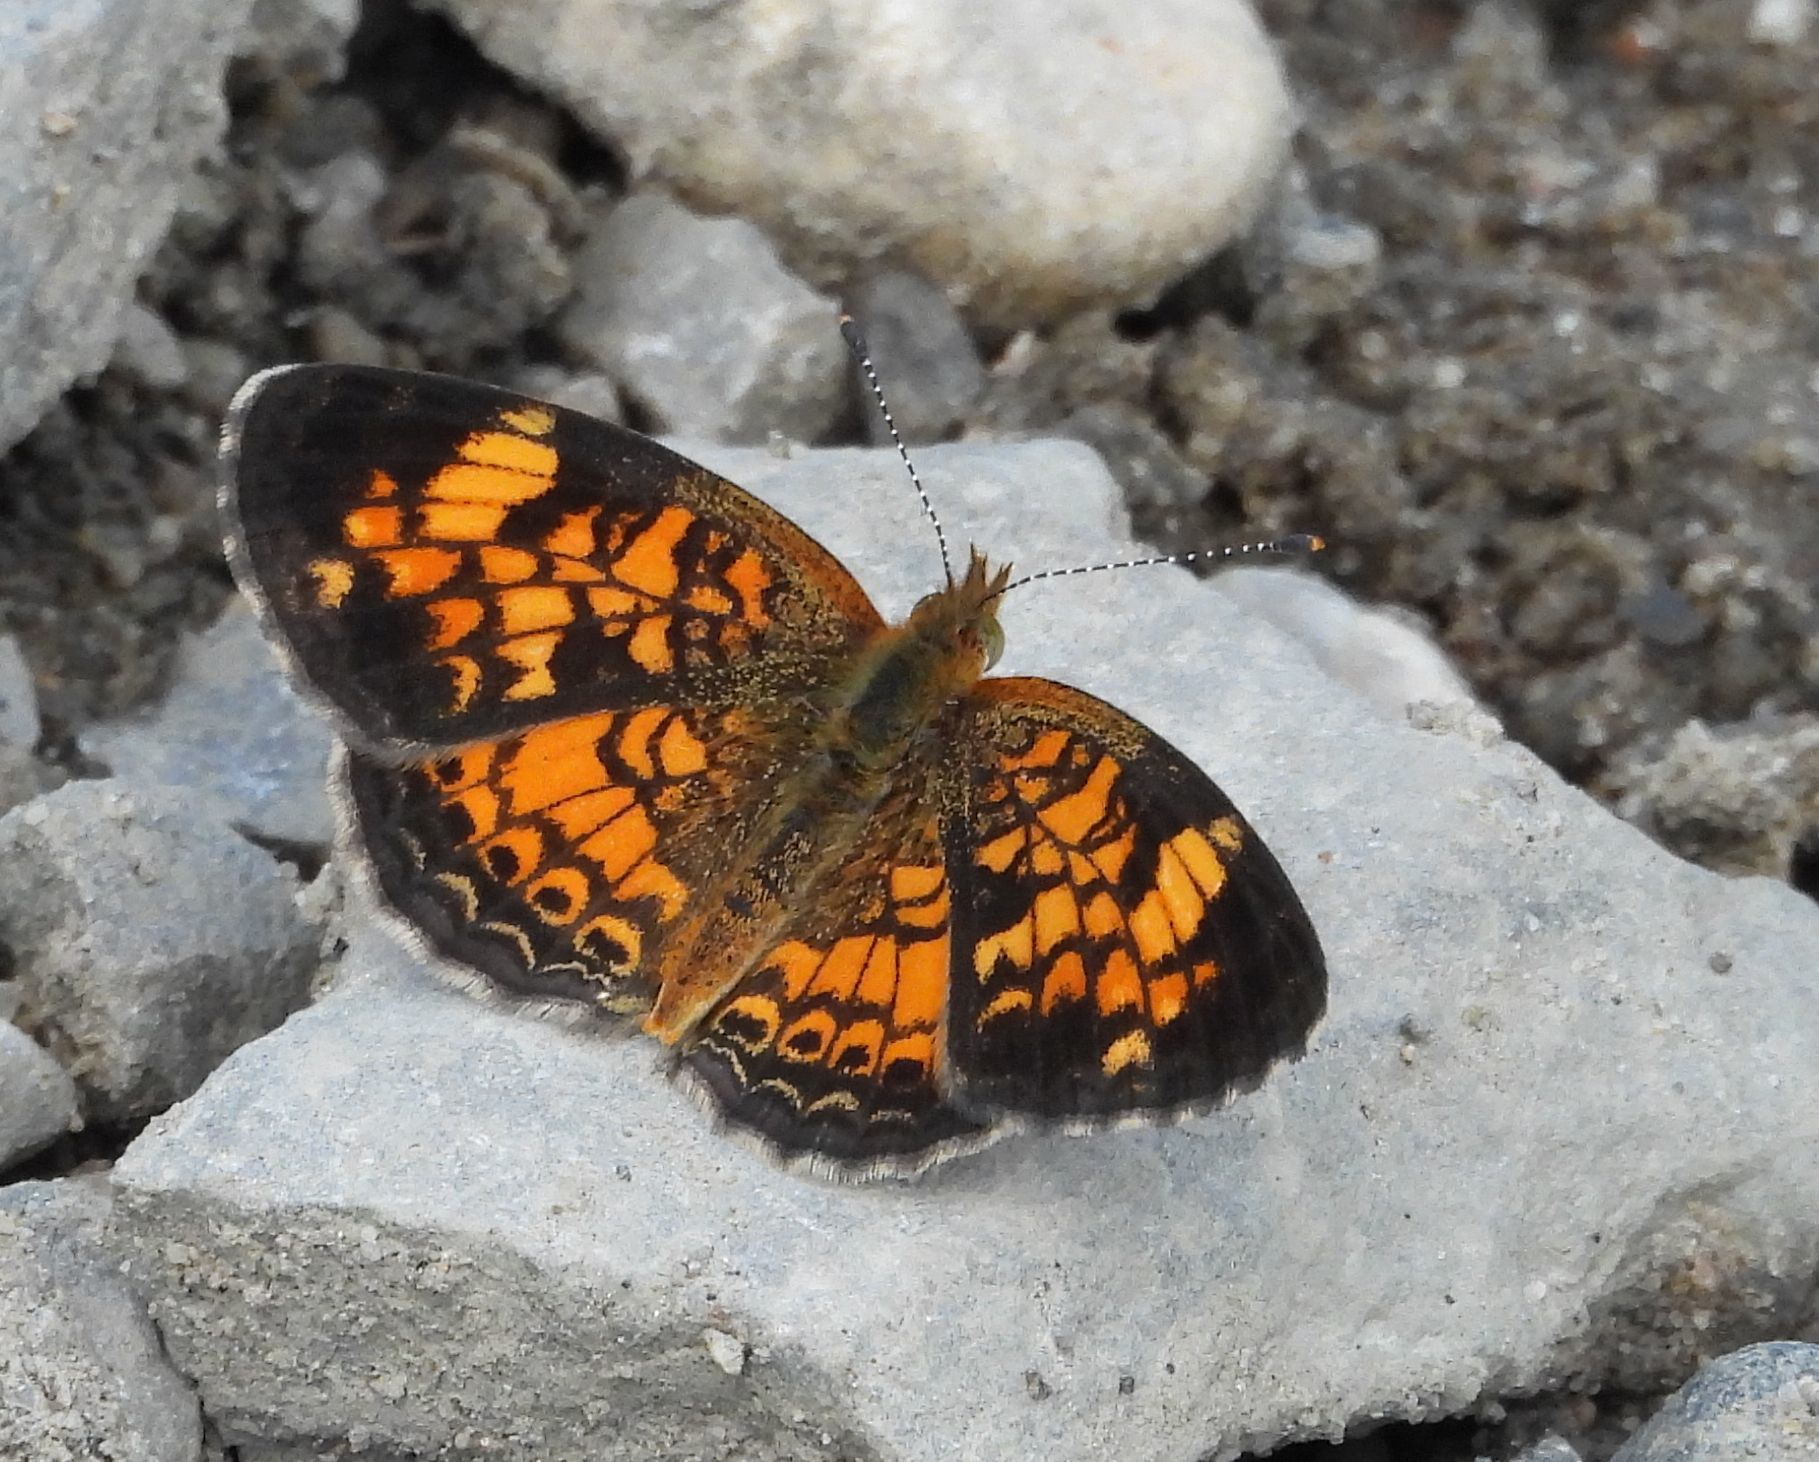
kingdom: Animalia
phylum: Arthropoda
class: Insecta
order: Lepidoptera
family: Nymphalidae
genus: Phyciodes
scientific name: Phyciodes tharos
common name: Pearl crescent
